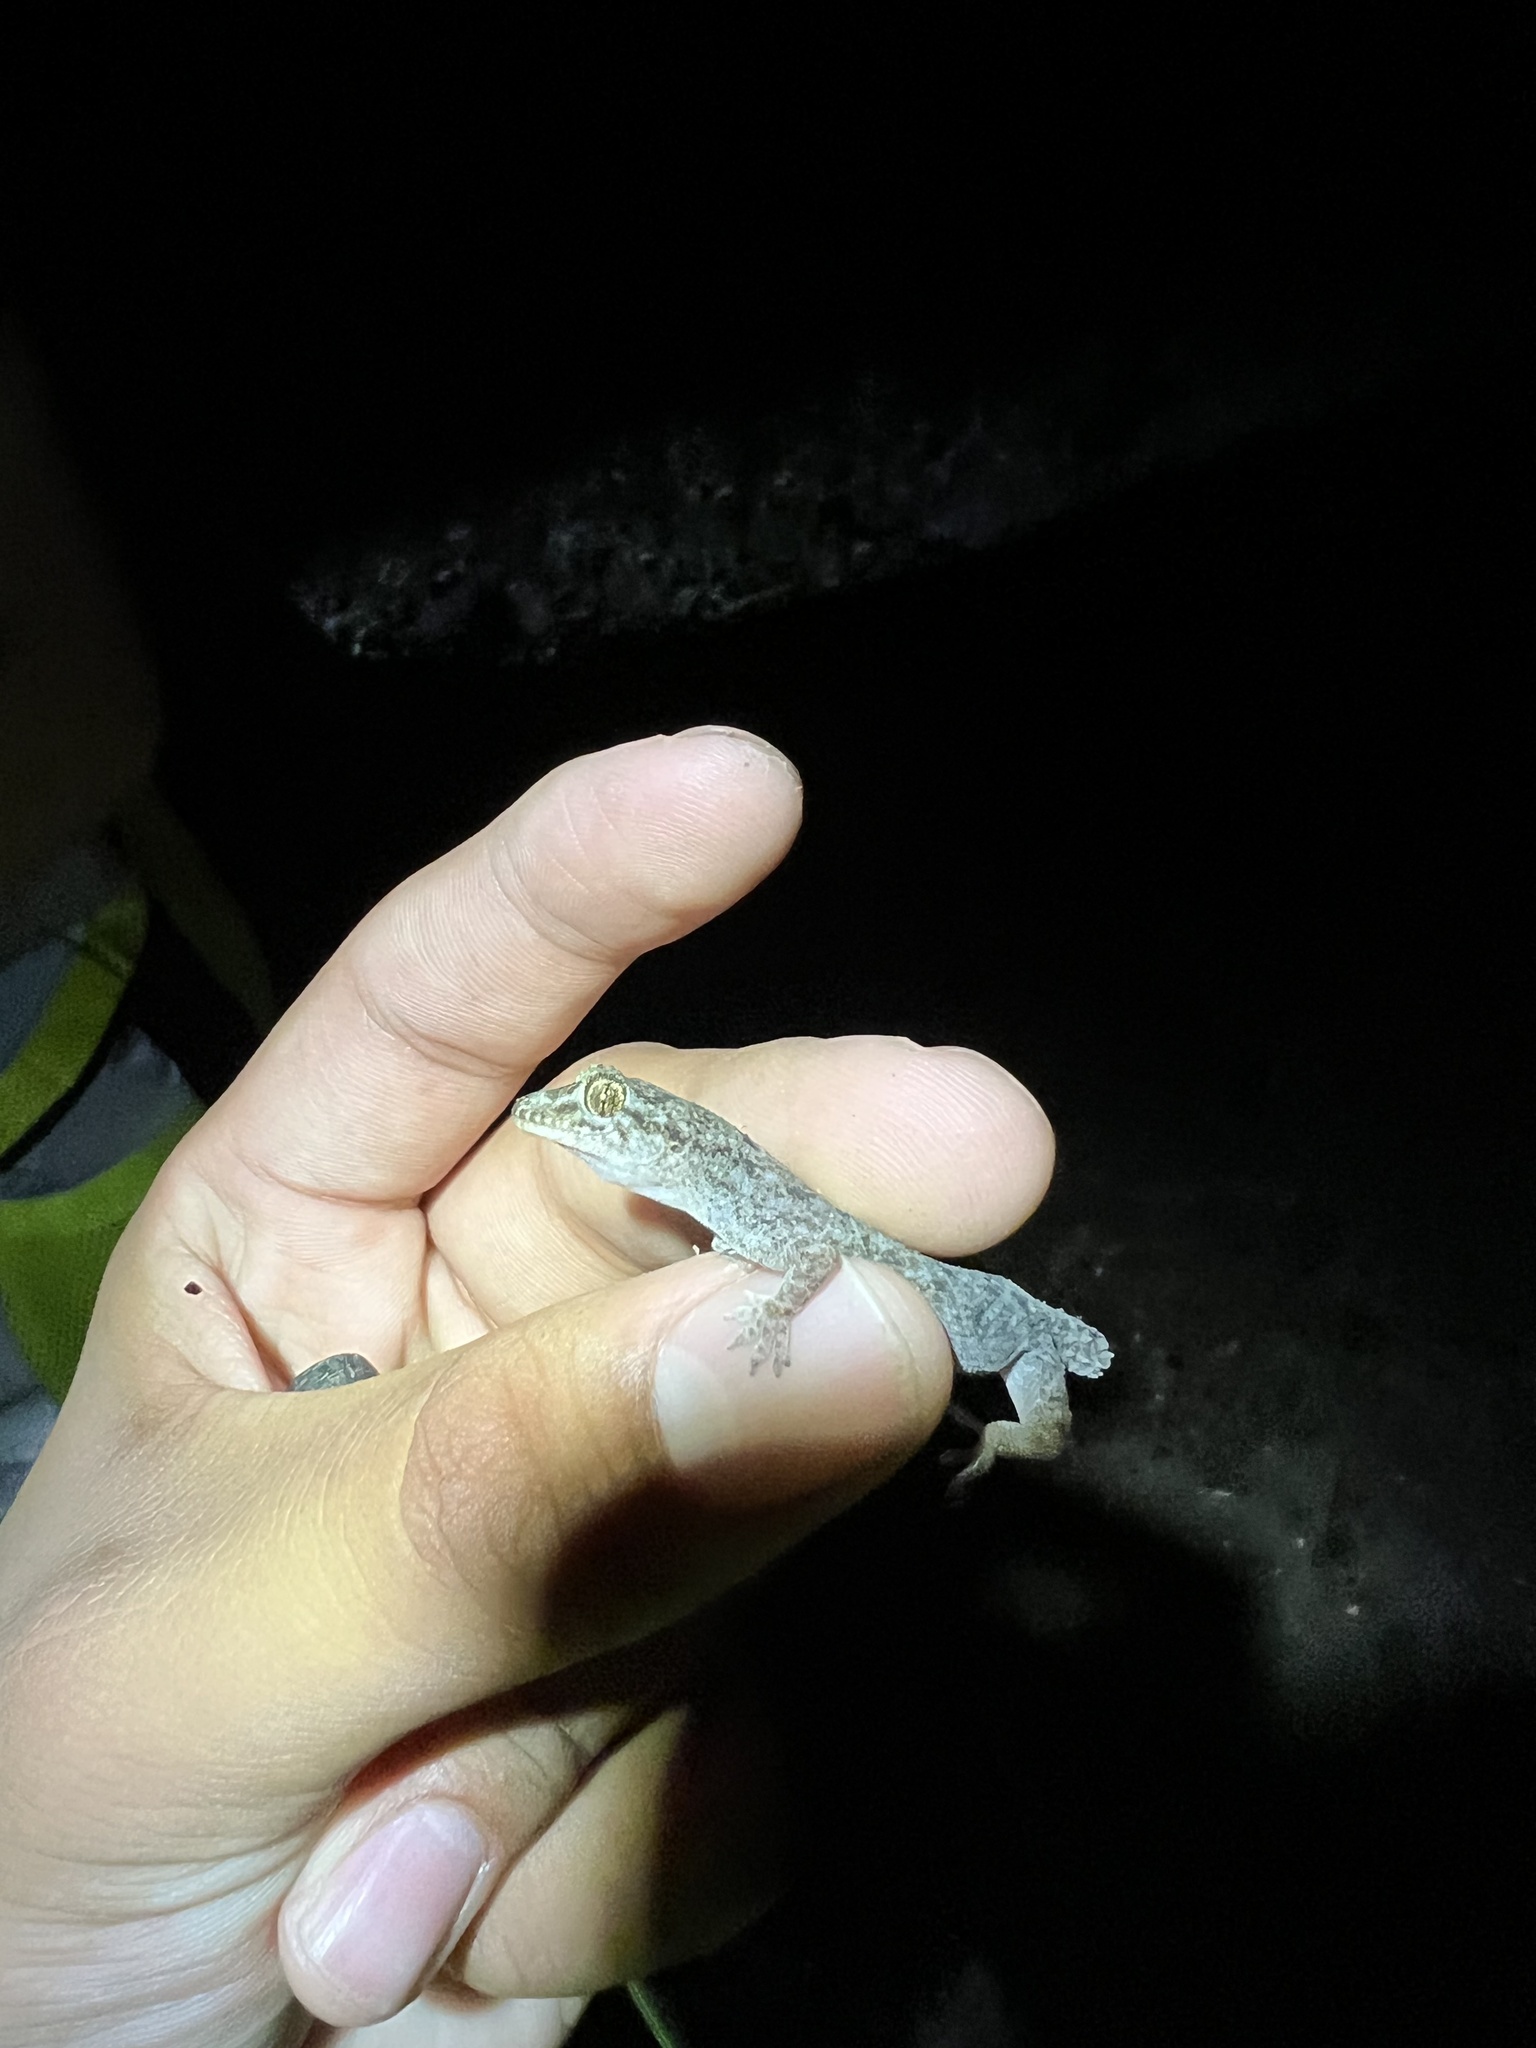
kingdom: Animalia
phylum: Chordata
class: Squamata
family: Gekkonidae
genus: Hemidactylus
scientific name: Hemidactylus parvimaculatus
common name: Spotted house gecko
